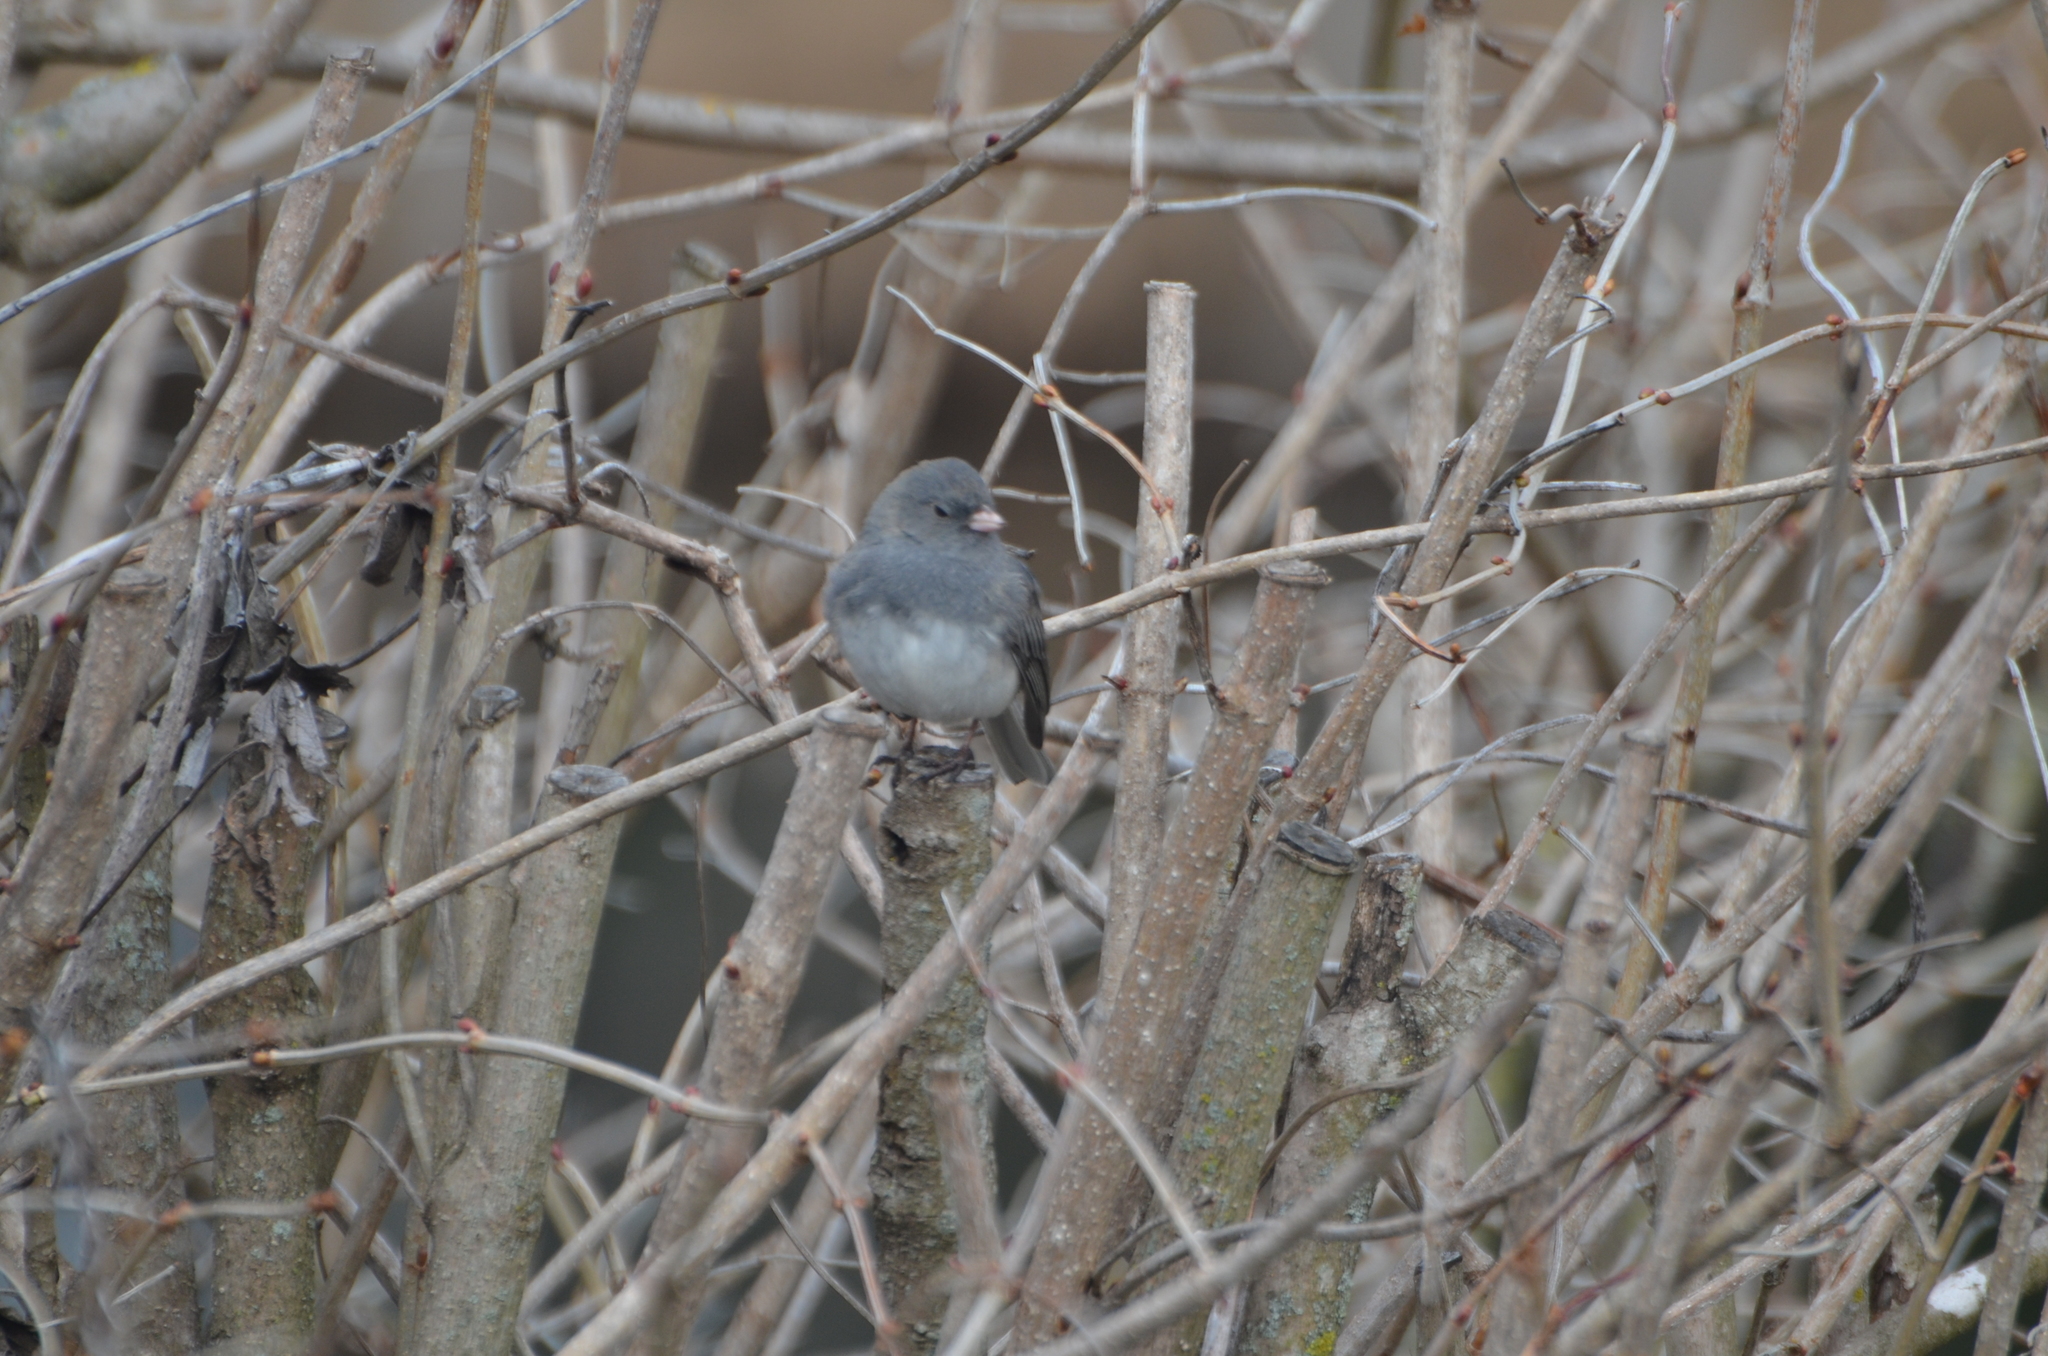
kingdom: Animalia
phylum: Chordata
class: Aves
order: Passeriformes
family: Passerellidae
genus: Junco
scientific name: Junco hyemalis
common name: Dark-eyed junco
